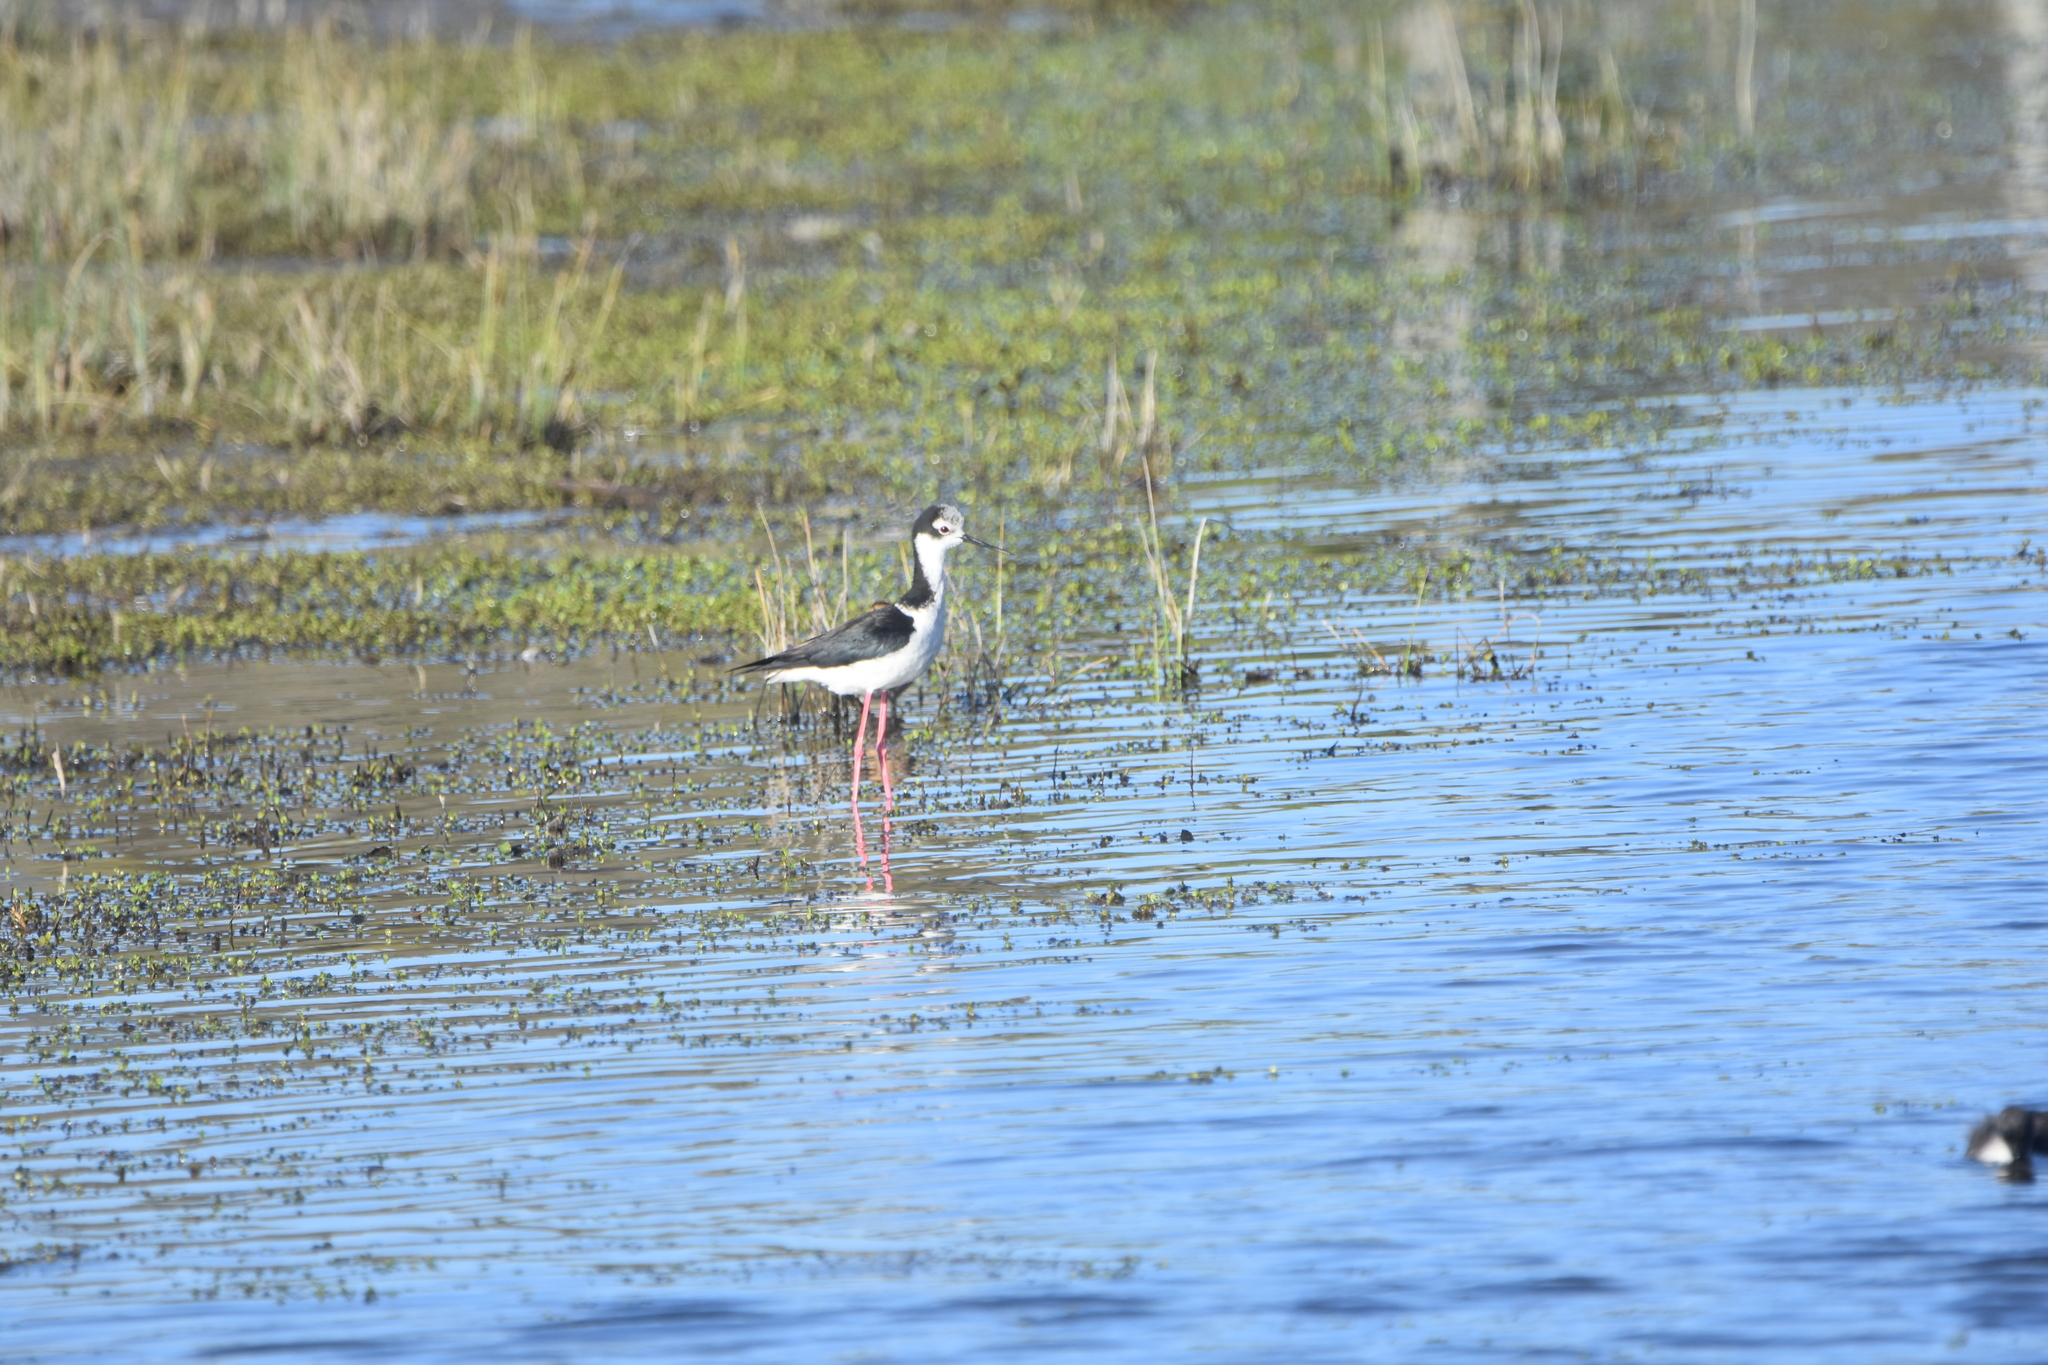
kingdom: Animalia
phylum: Chordata
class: Aves
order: Charadriiformes
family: Recurvirostridae
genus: Himantopus
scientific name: Himantopus mexicanus
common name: Black-necked stilt
